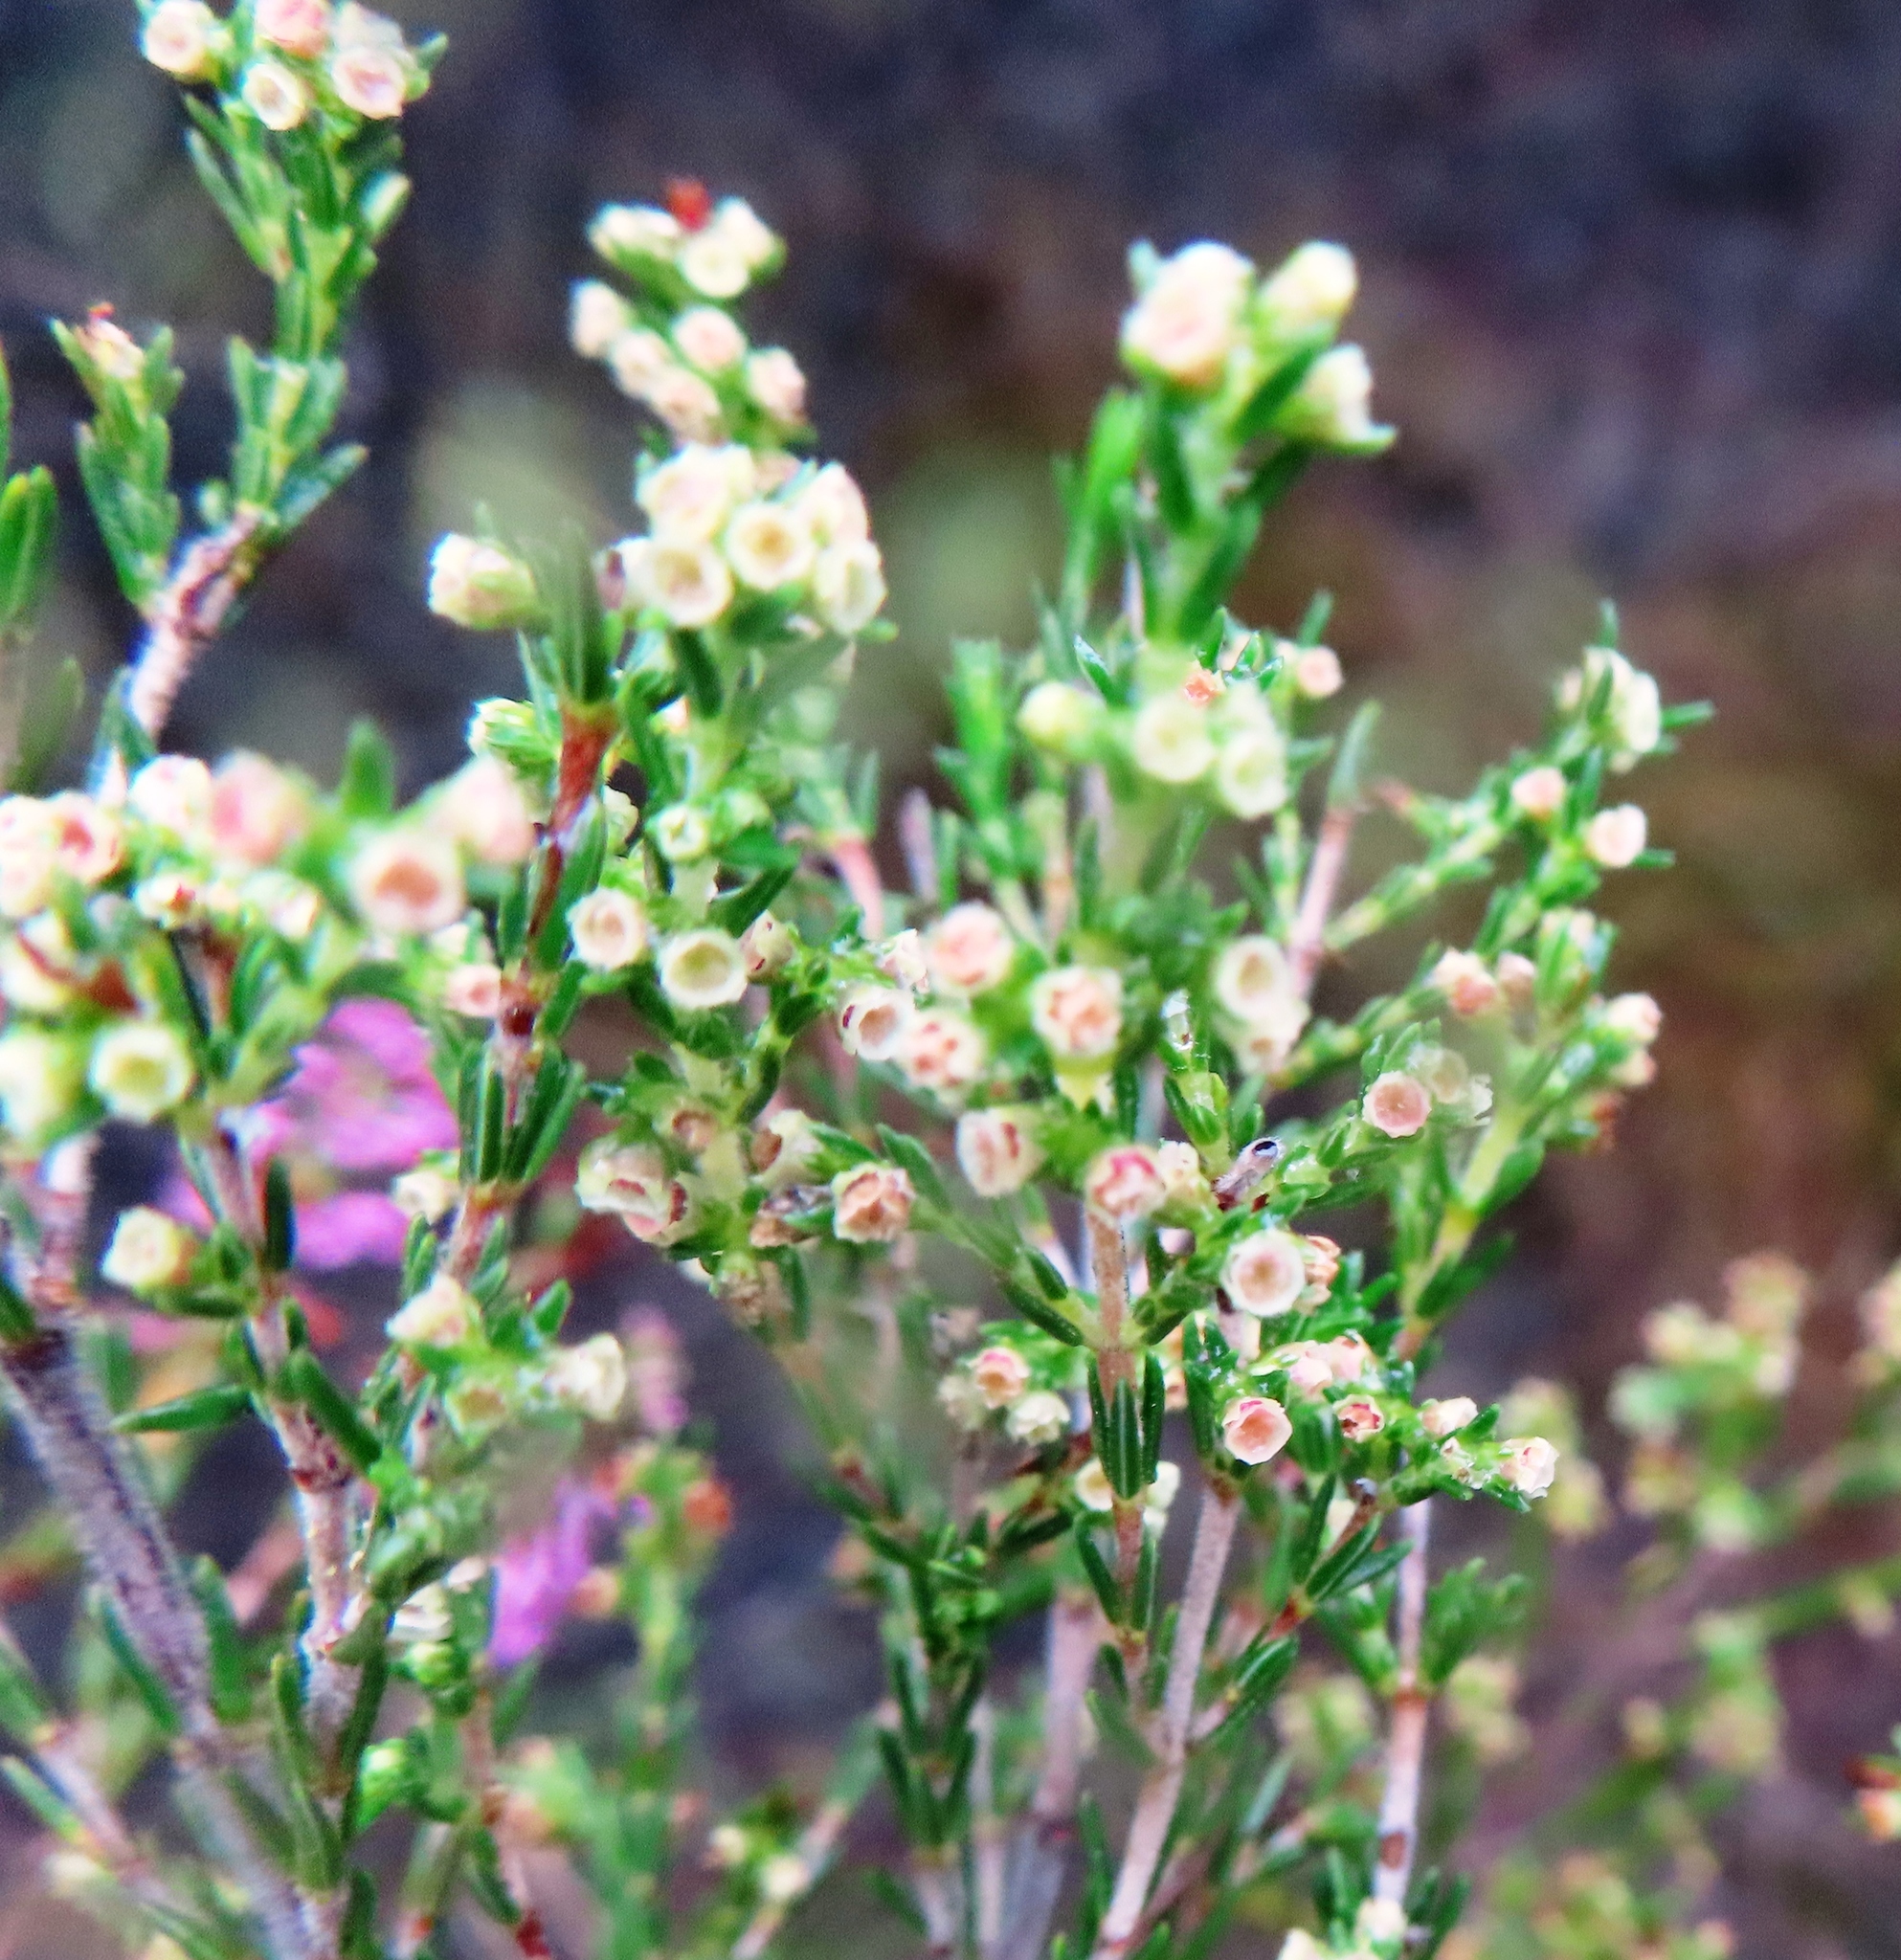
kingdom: Plantae
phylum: Tracheophyta
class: Magnoliopsida
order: Ericales
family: Ericaceae
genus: Erica
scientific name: Erica bredasiana
